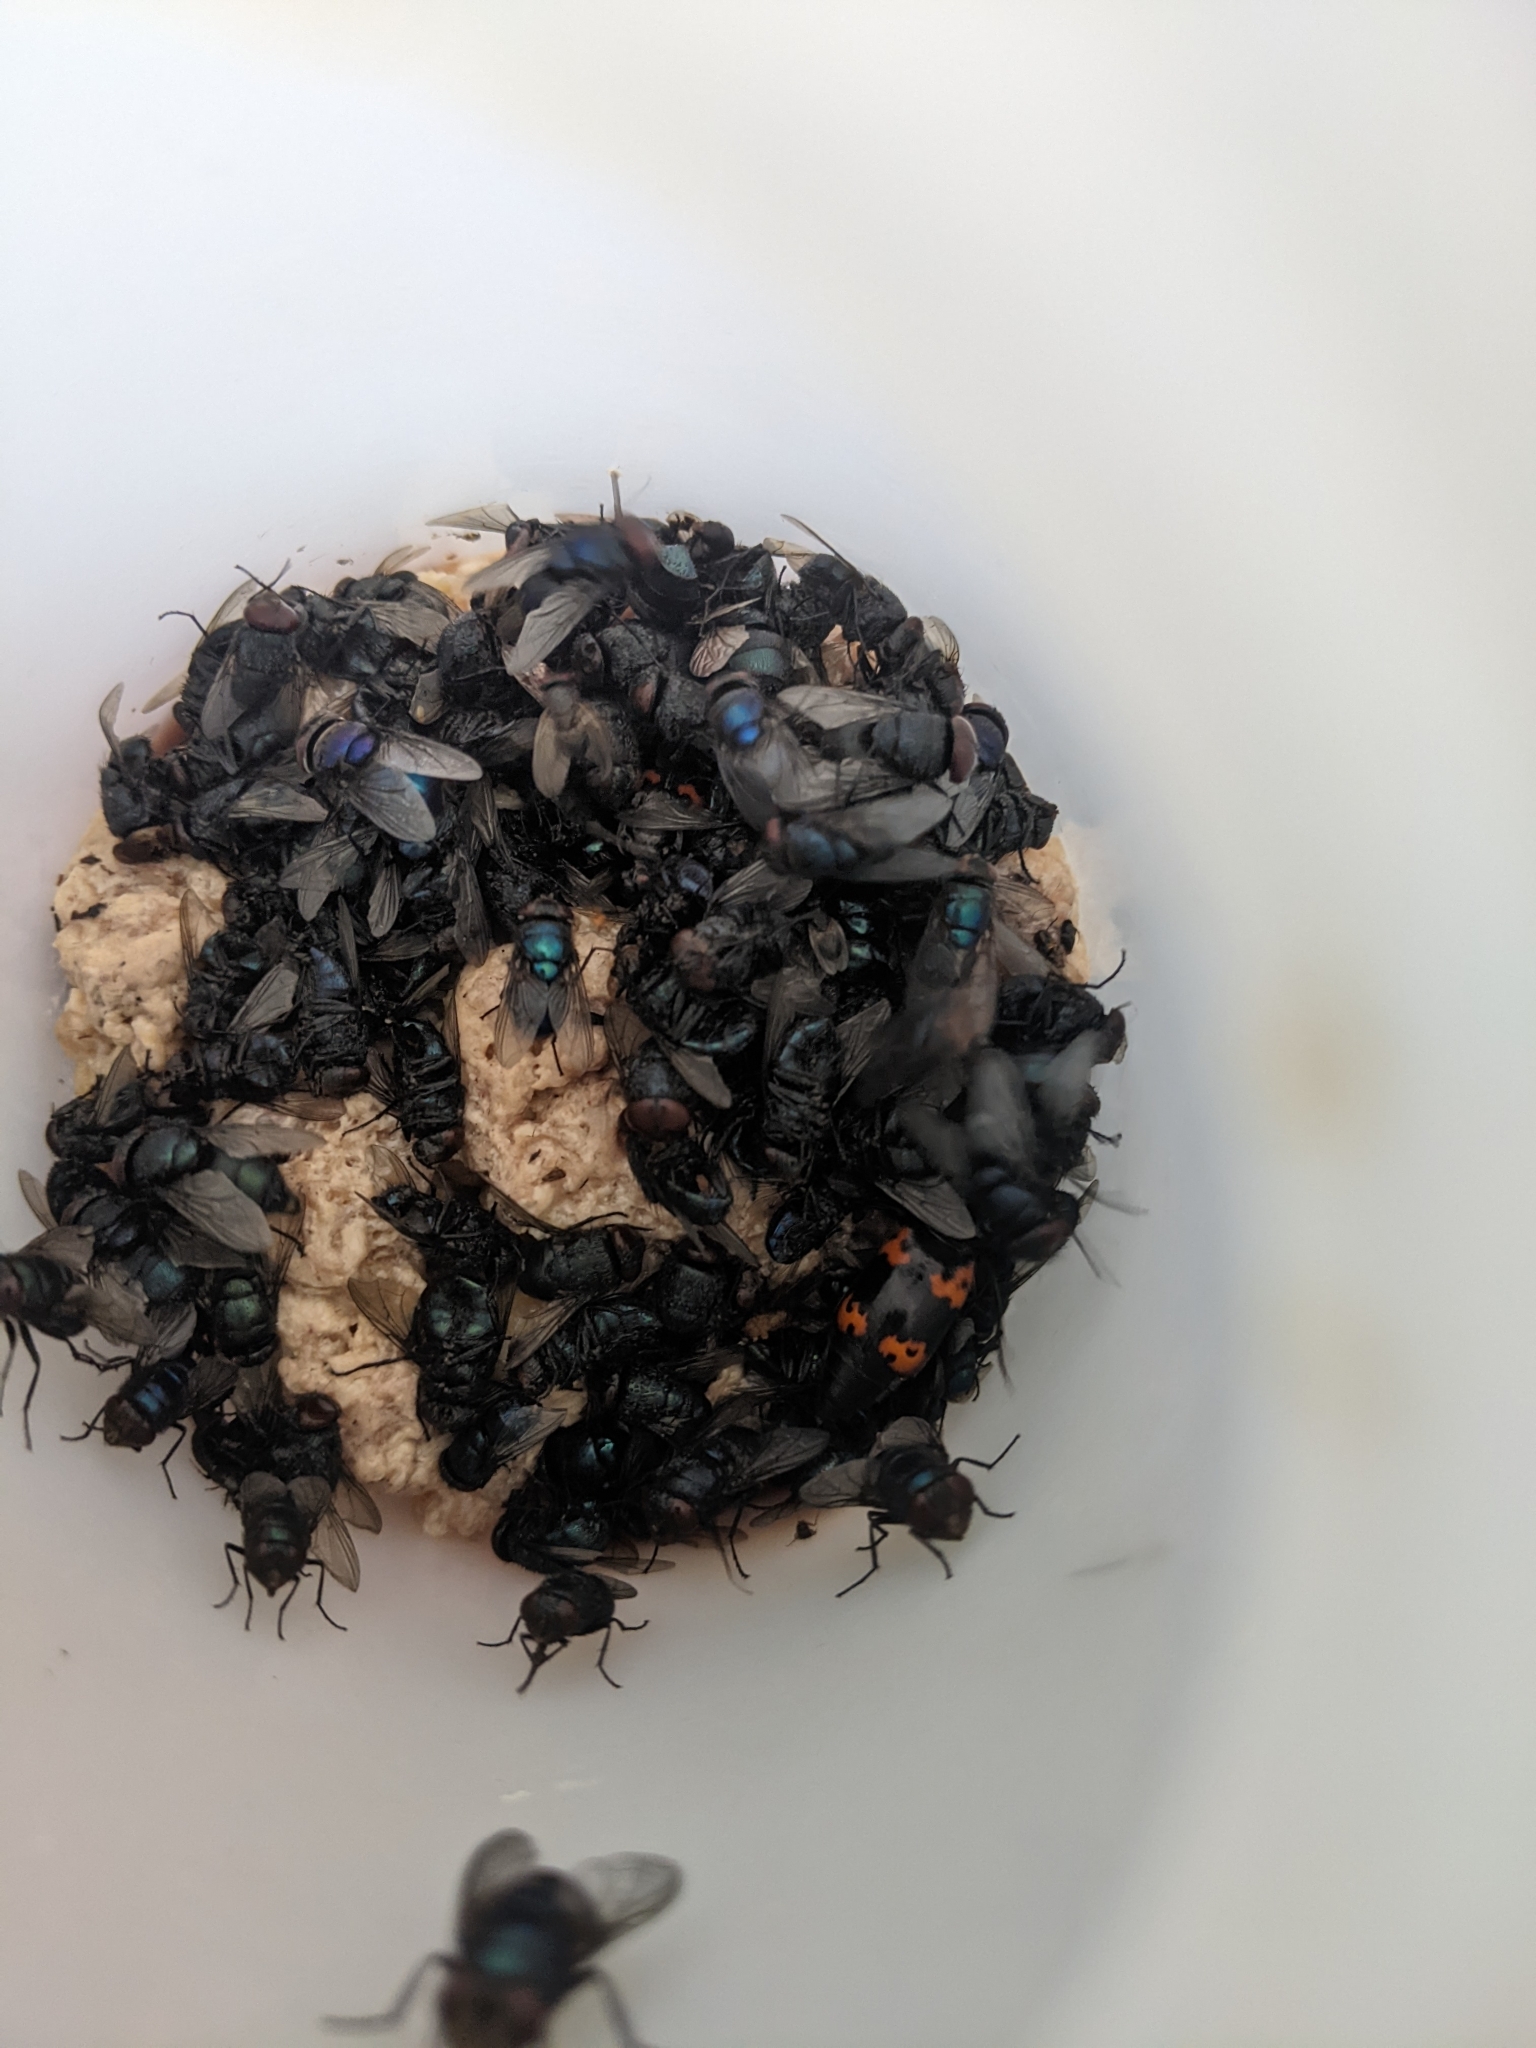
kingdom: Animalia
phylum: Arthropoda
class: Insecta
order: Coleoptera
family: Staphylinidae
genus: Nicrophorus
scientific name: Nicrophorus nepalensis
